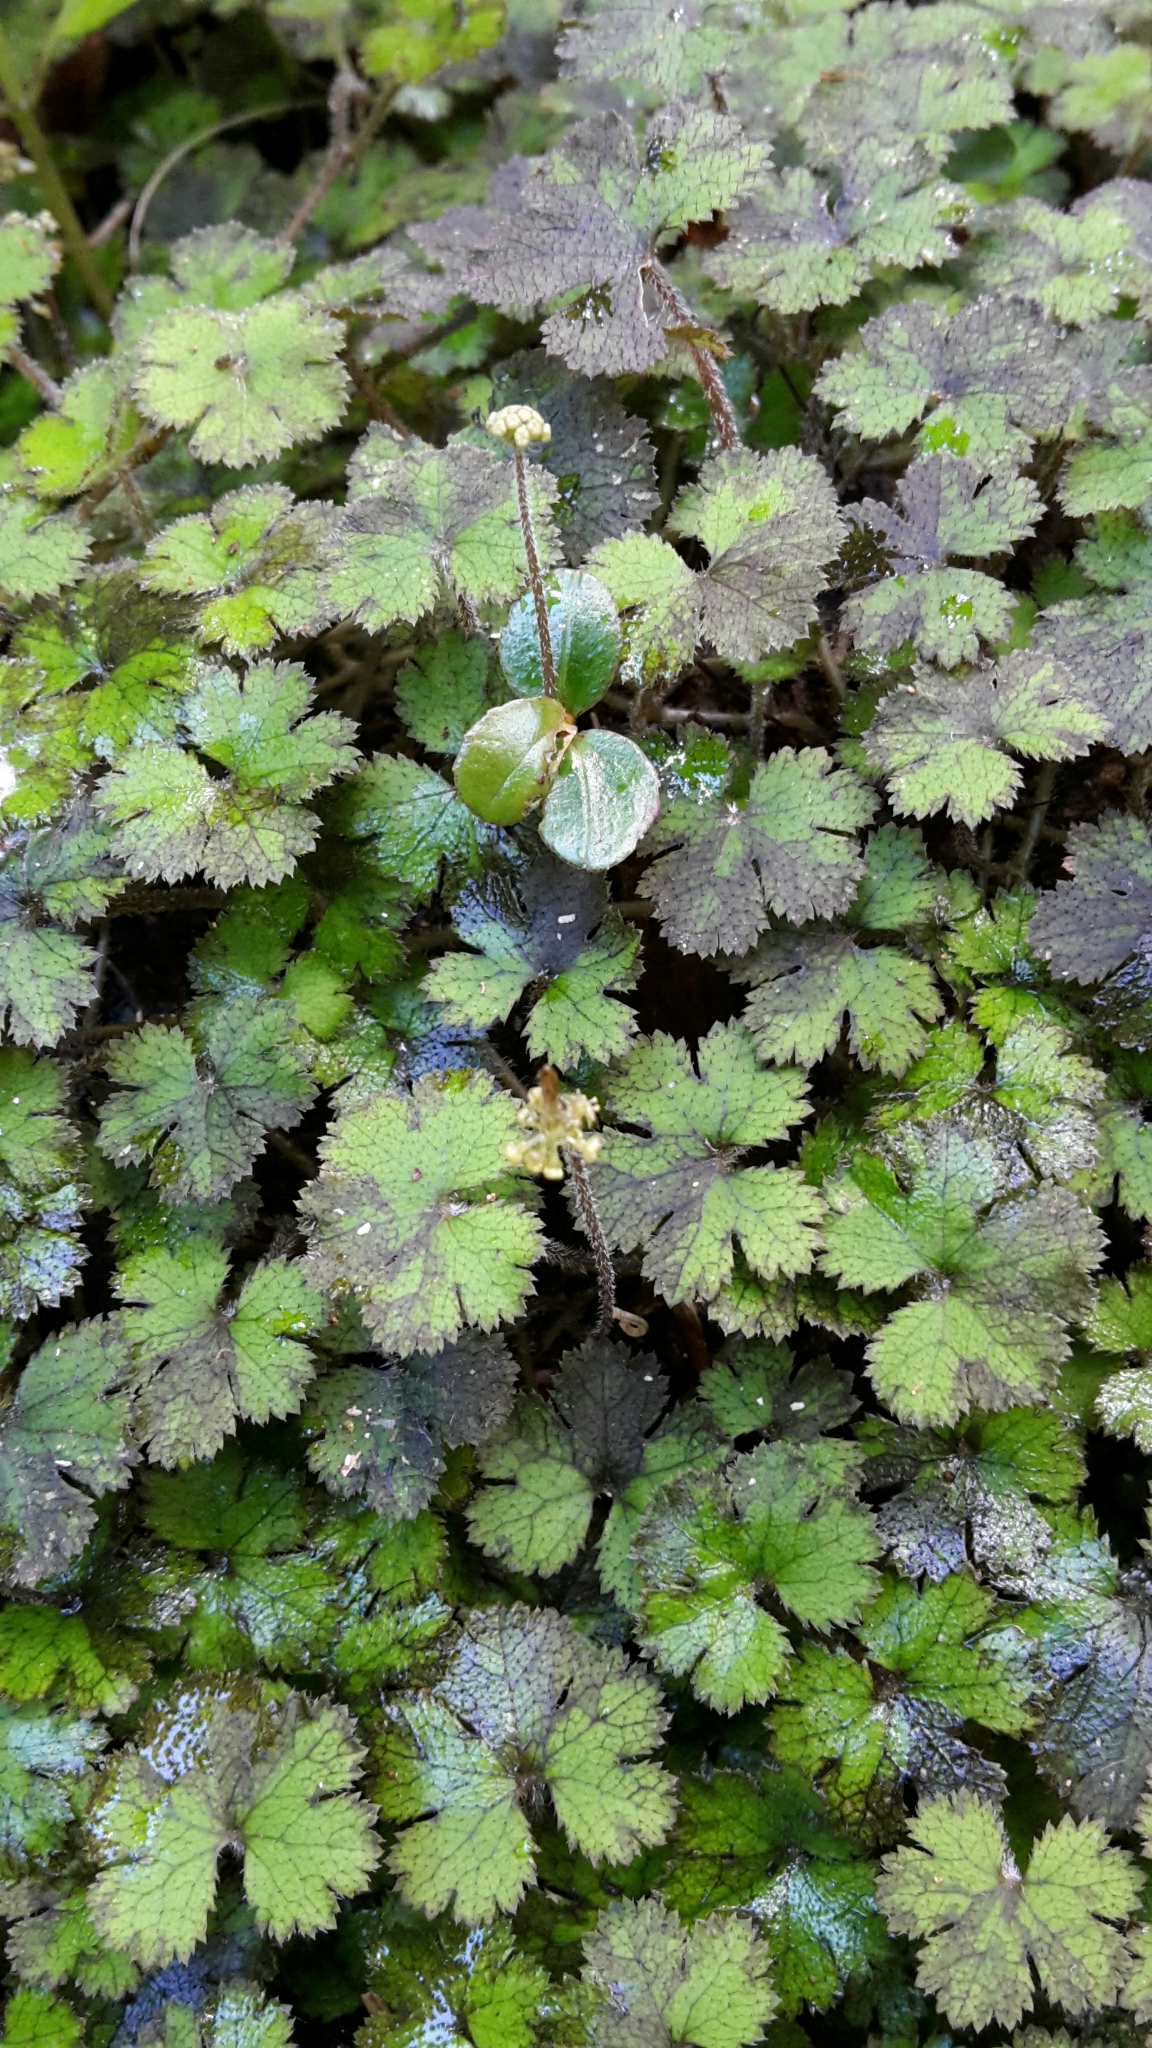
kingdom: Plantae
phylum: Tracheophyta
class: Magnoliopsida
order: Apiales
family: Araliaceae
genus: Hydrocotyle
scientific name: Hydrocotyle elongata
